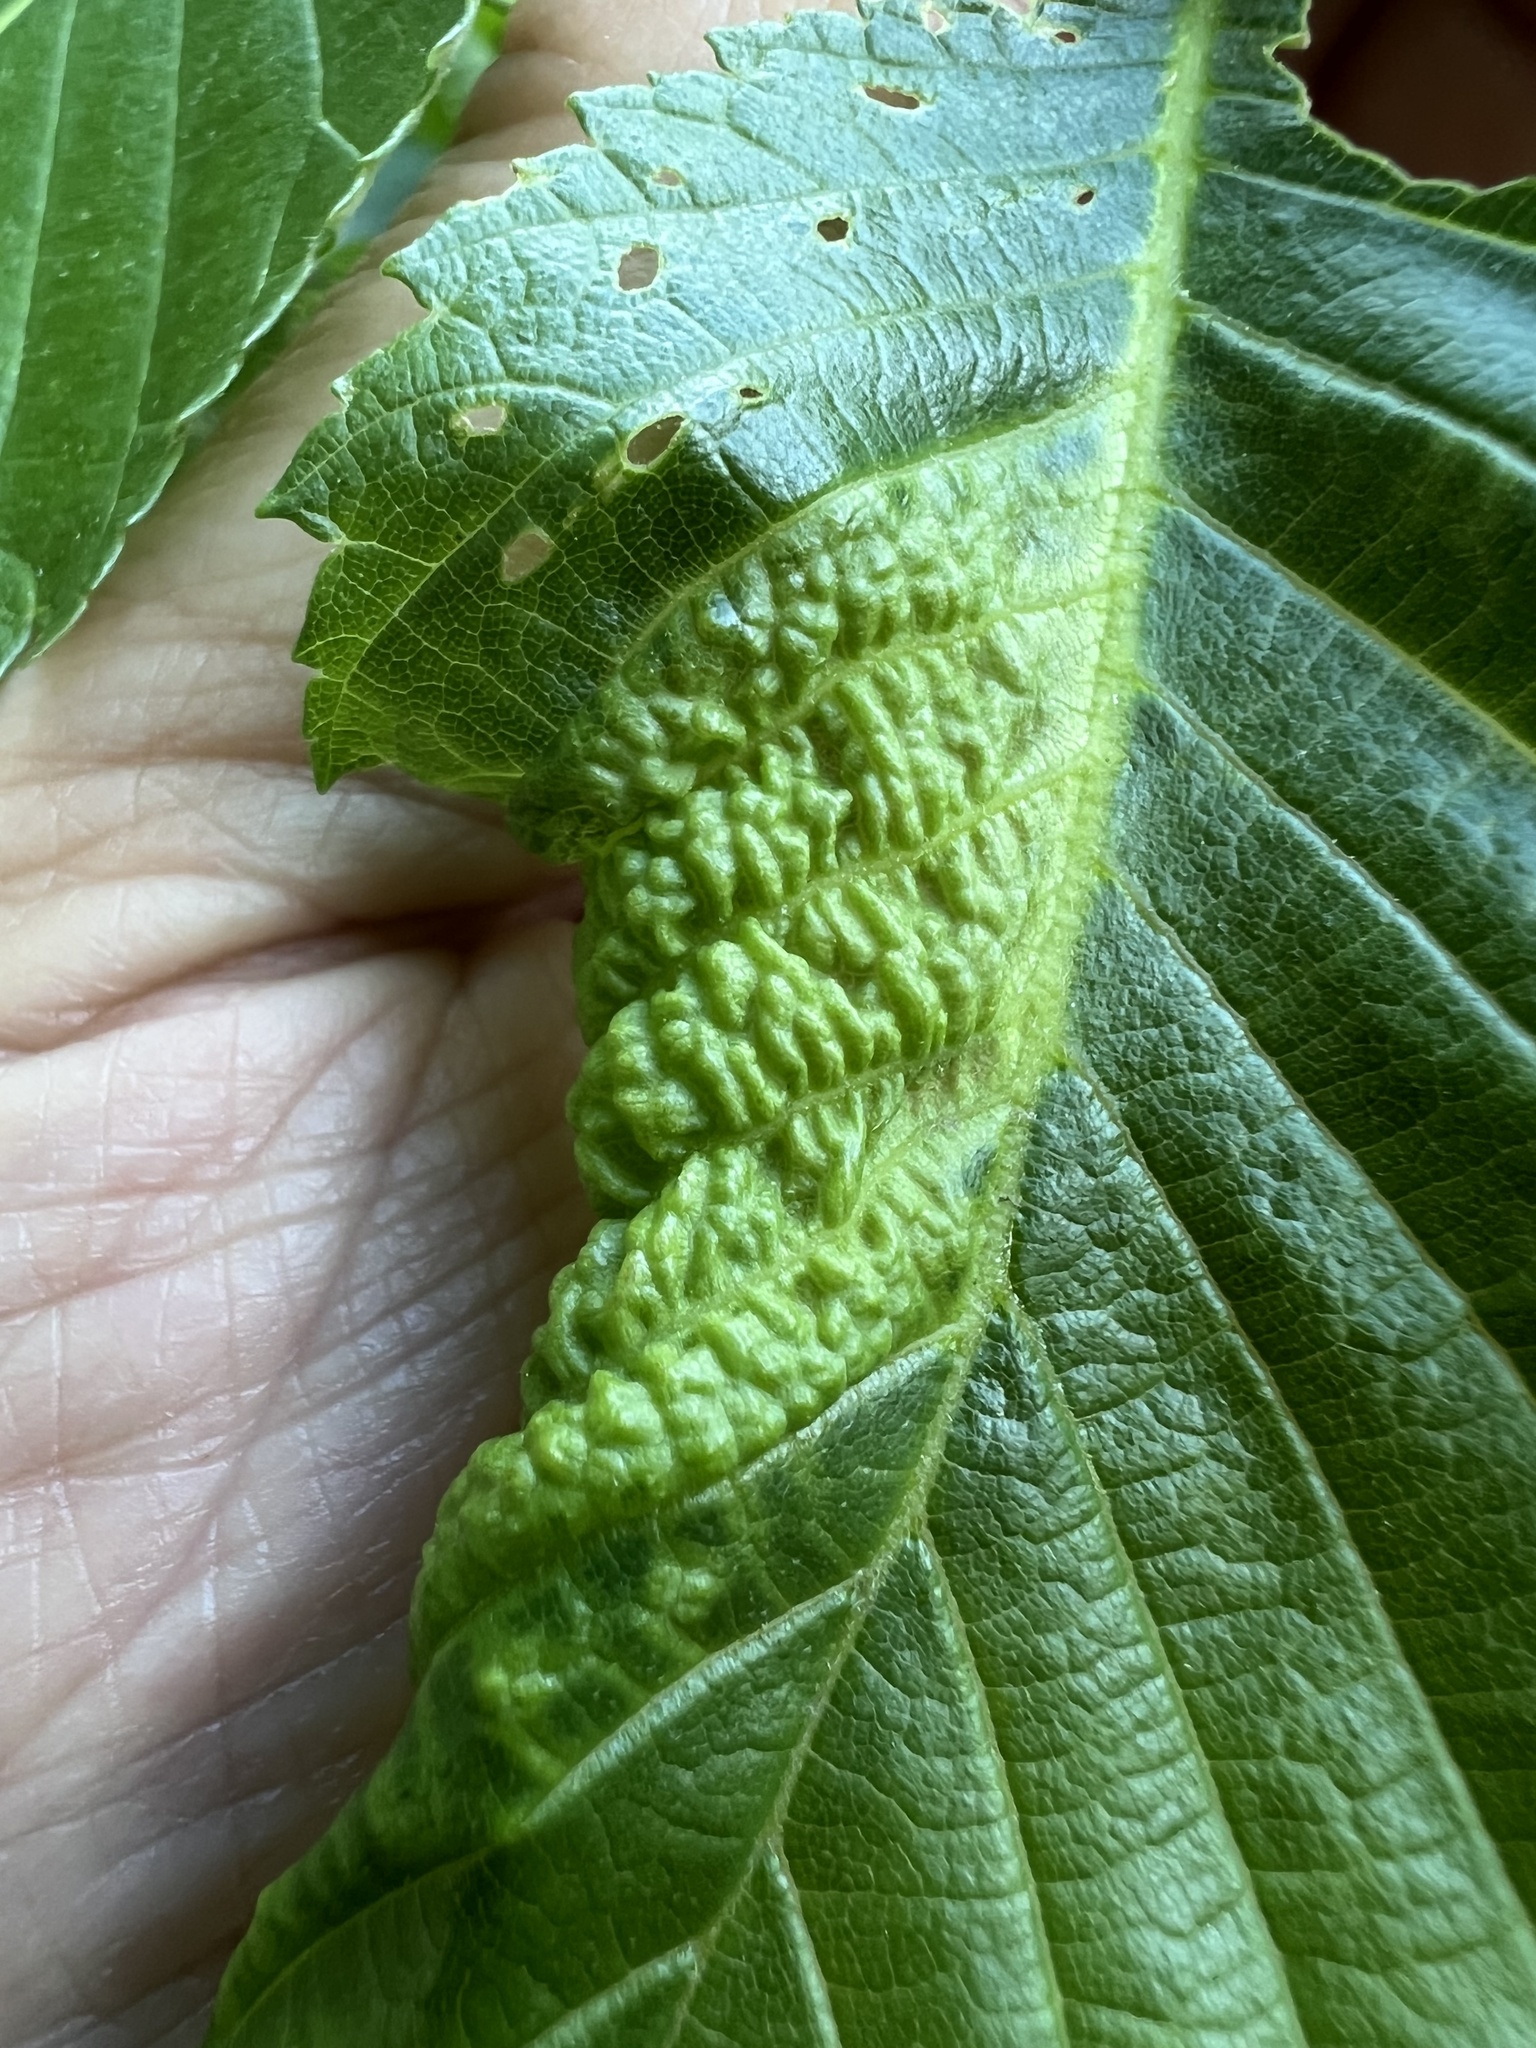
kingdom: Animalia
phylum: Arthropoda
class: Insecta
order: Hemiptera
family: Aphididae
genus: Eriosoma
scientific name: Eriosoma americanum
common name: Woolly elm aphid
